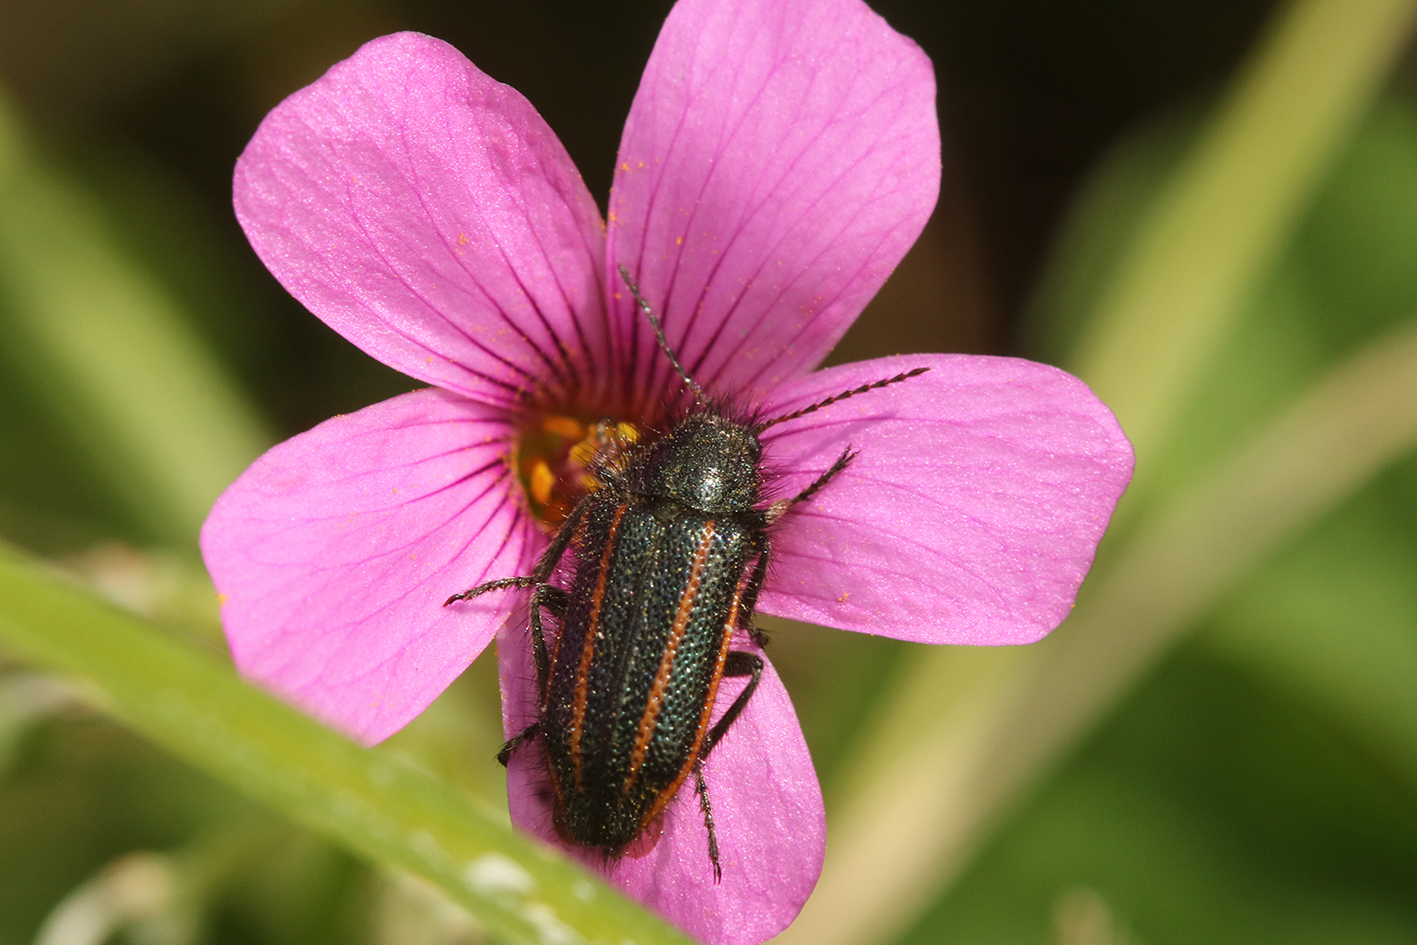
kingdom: Animalia
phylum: Arthropoda
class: Insecta
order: Coleoptera
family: Melyridae
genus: Astylus
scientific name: Astylus
